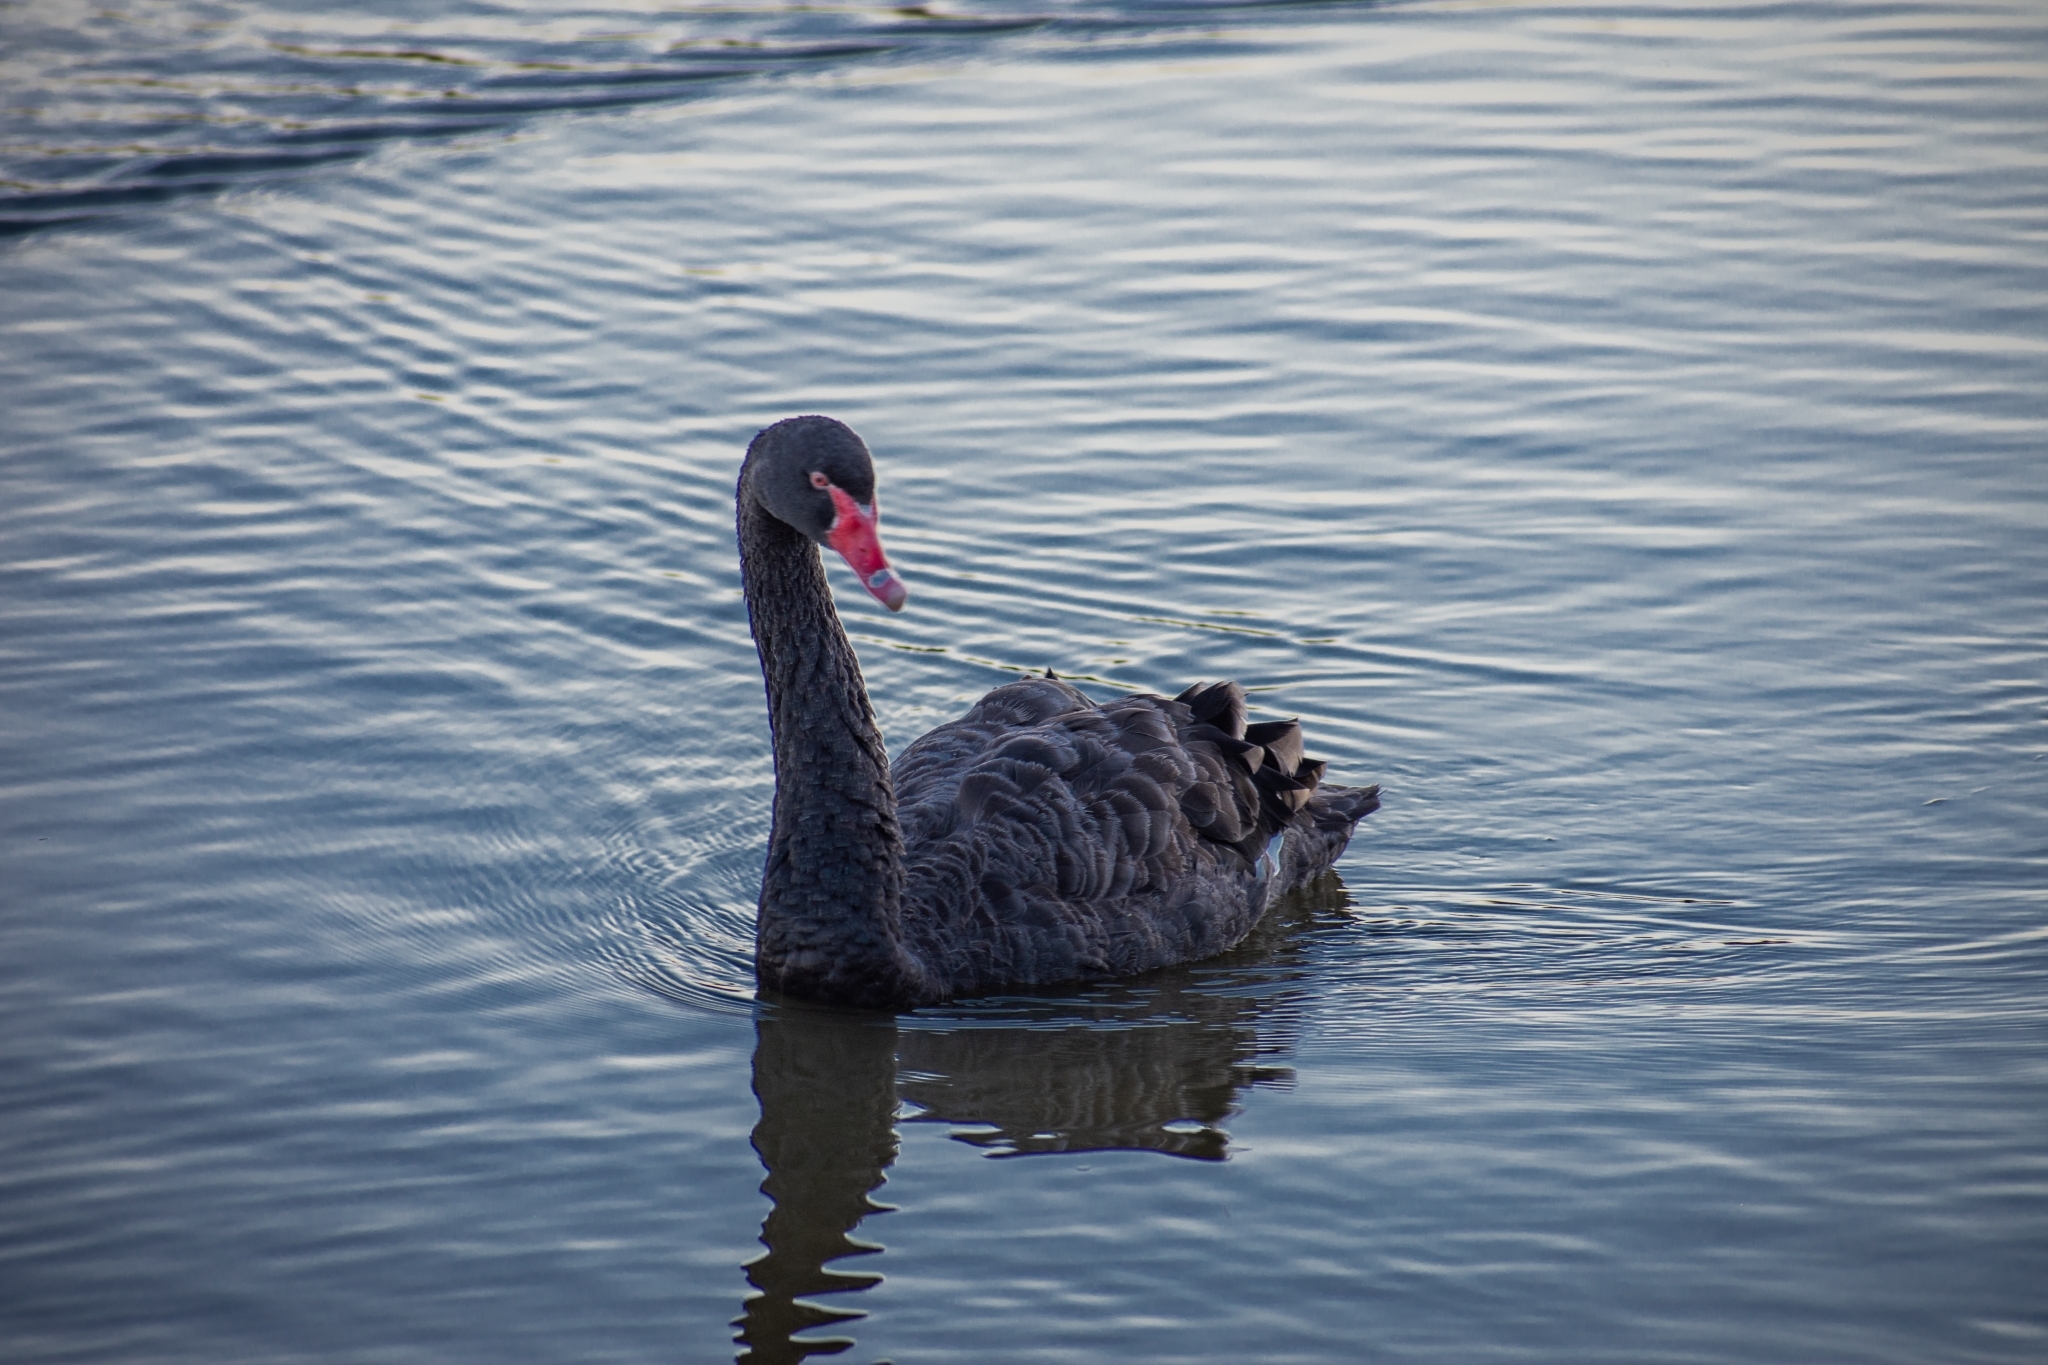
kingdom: Animalia
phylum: Chordata
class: Aves
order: Anseriformes
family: Anatidae
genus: Cygnus
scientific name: Cygnus atratus
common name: Black swan
